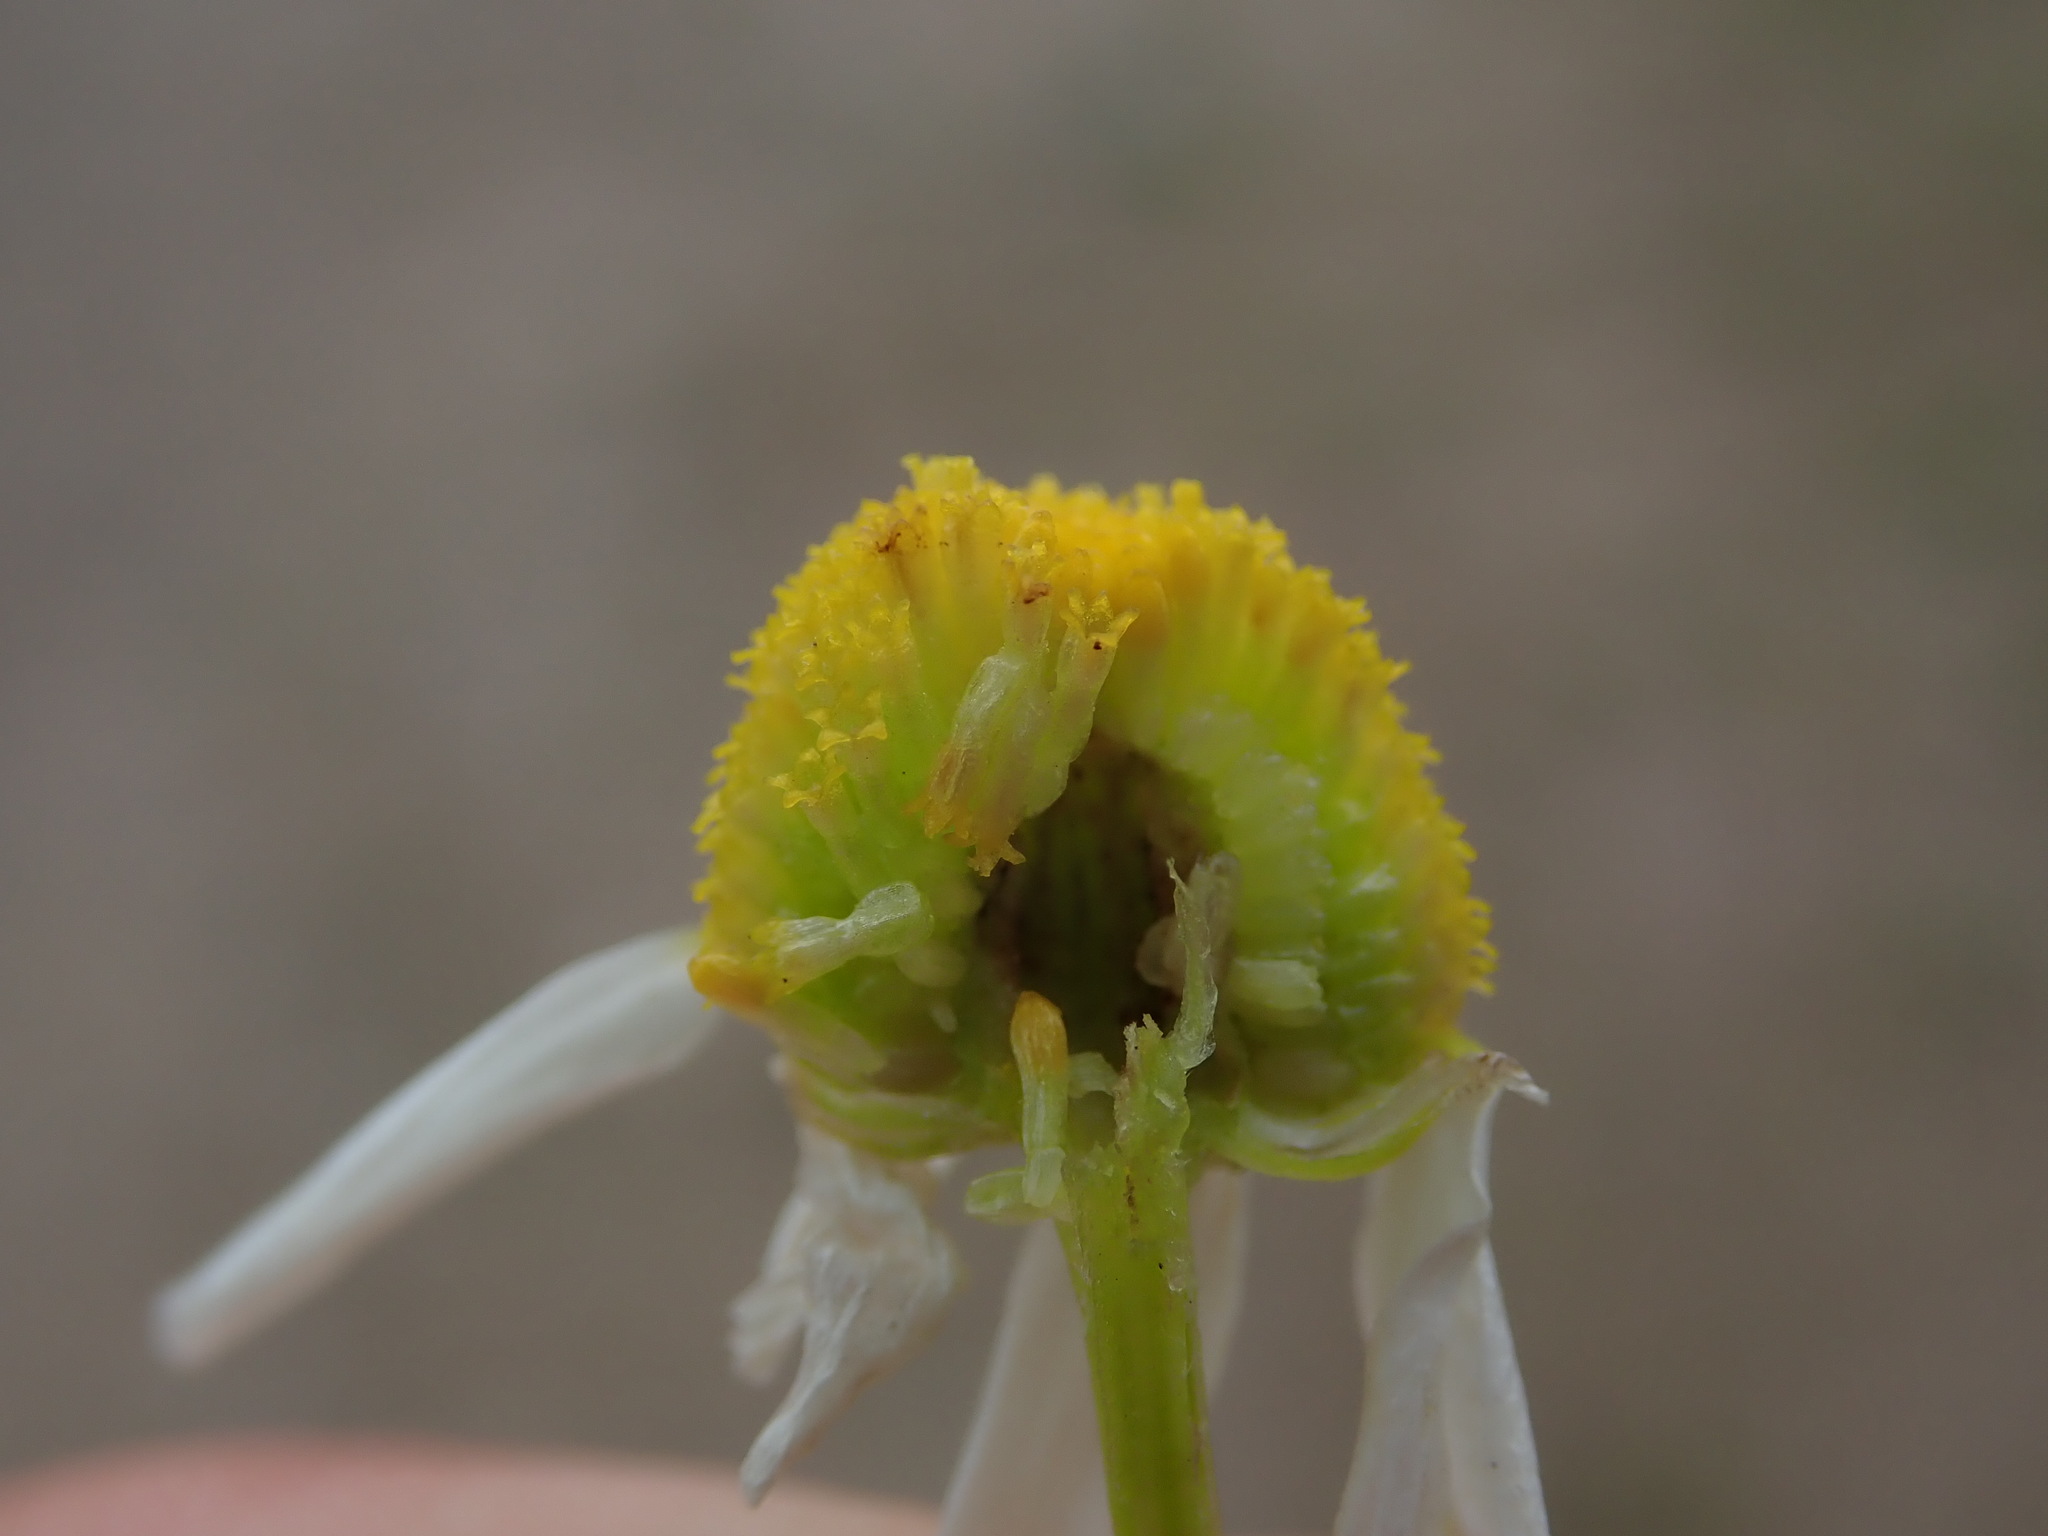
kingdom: Plantae
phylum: Tracheophyta
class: Magnoliopsida
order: Asterales
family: Asteraceae
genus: Matricaria
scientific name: Matricaria chamomilla
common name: Scented mayweed
